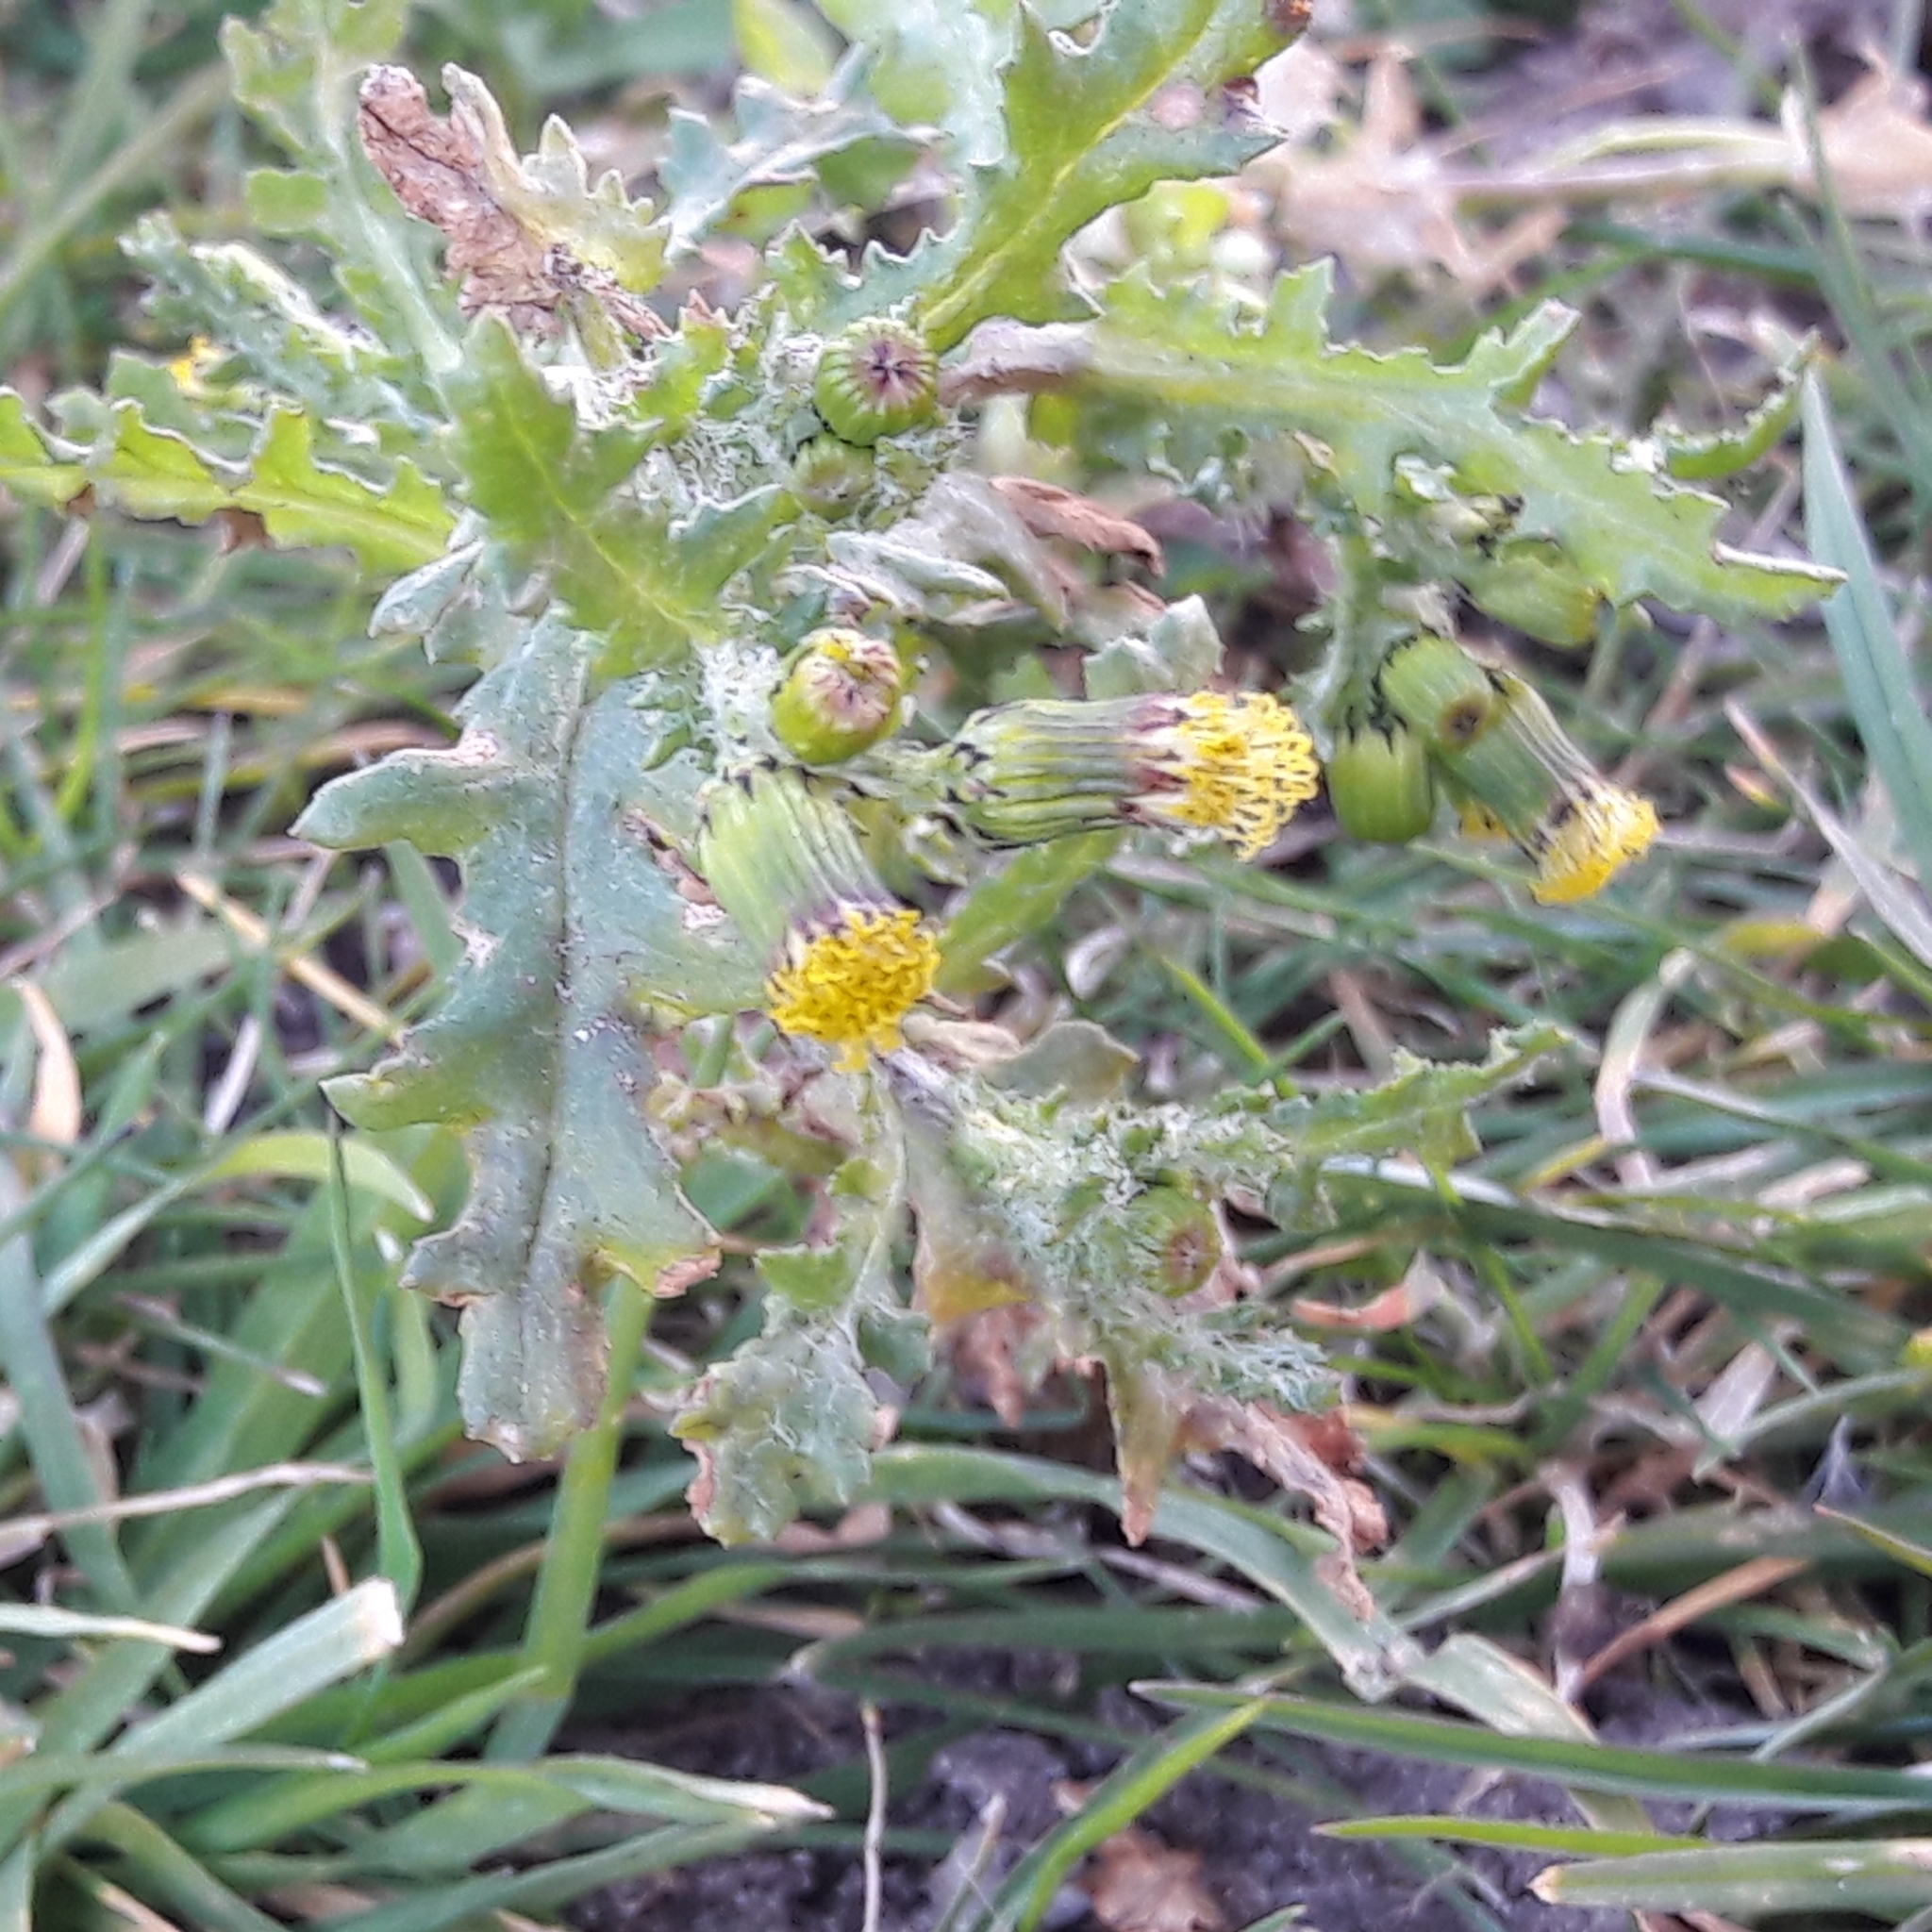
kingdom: Plantae
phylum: Tracheophyta
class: Magnoliopsida
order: Asterales
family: Asteraceae
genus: Senecio
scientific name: Senecio vulgaris
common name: Old-man-in-the-spring
